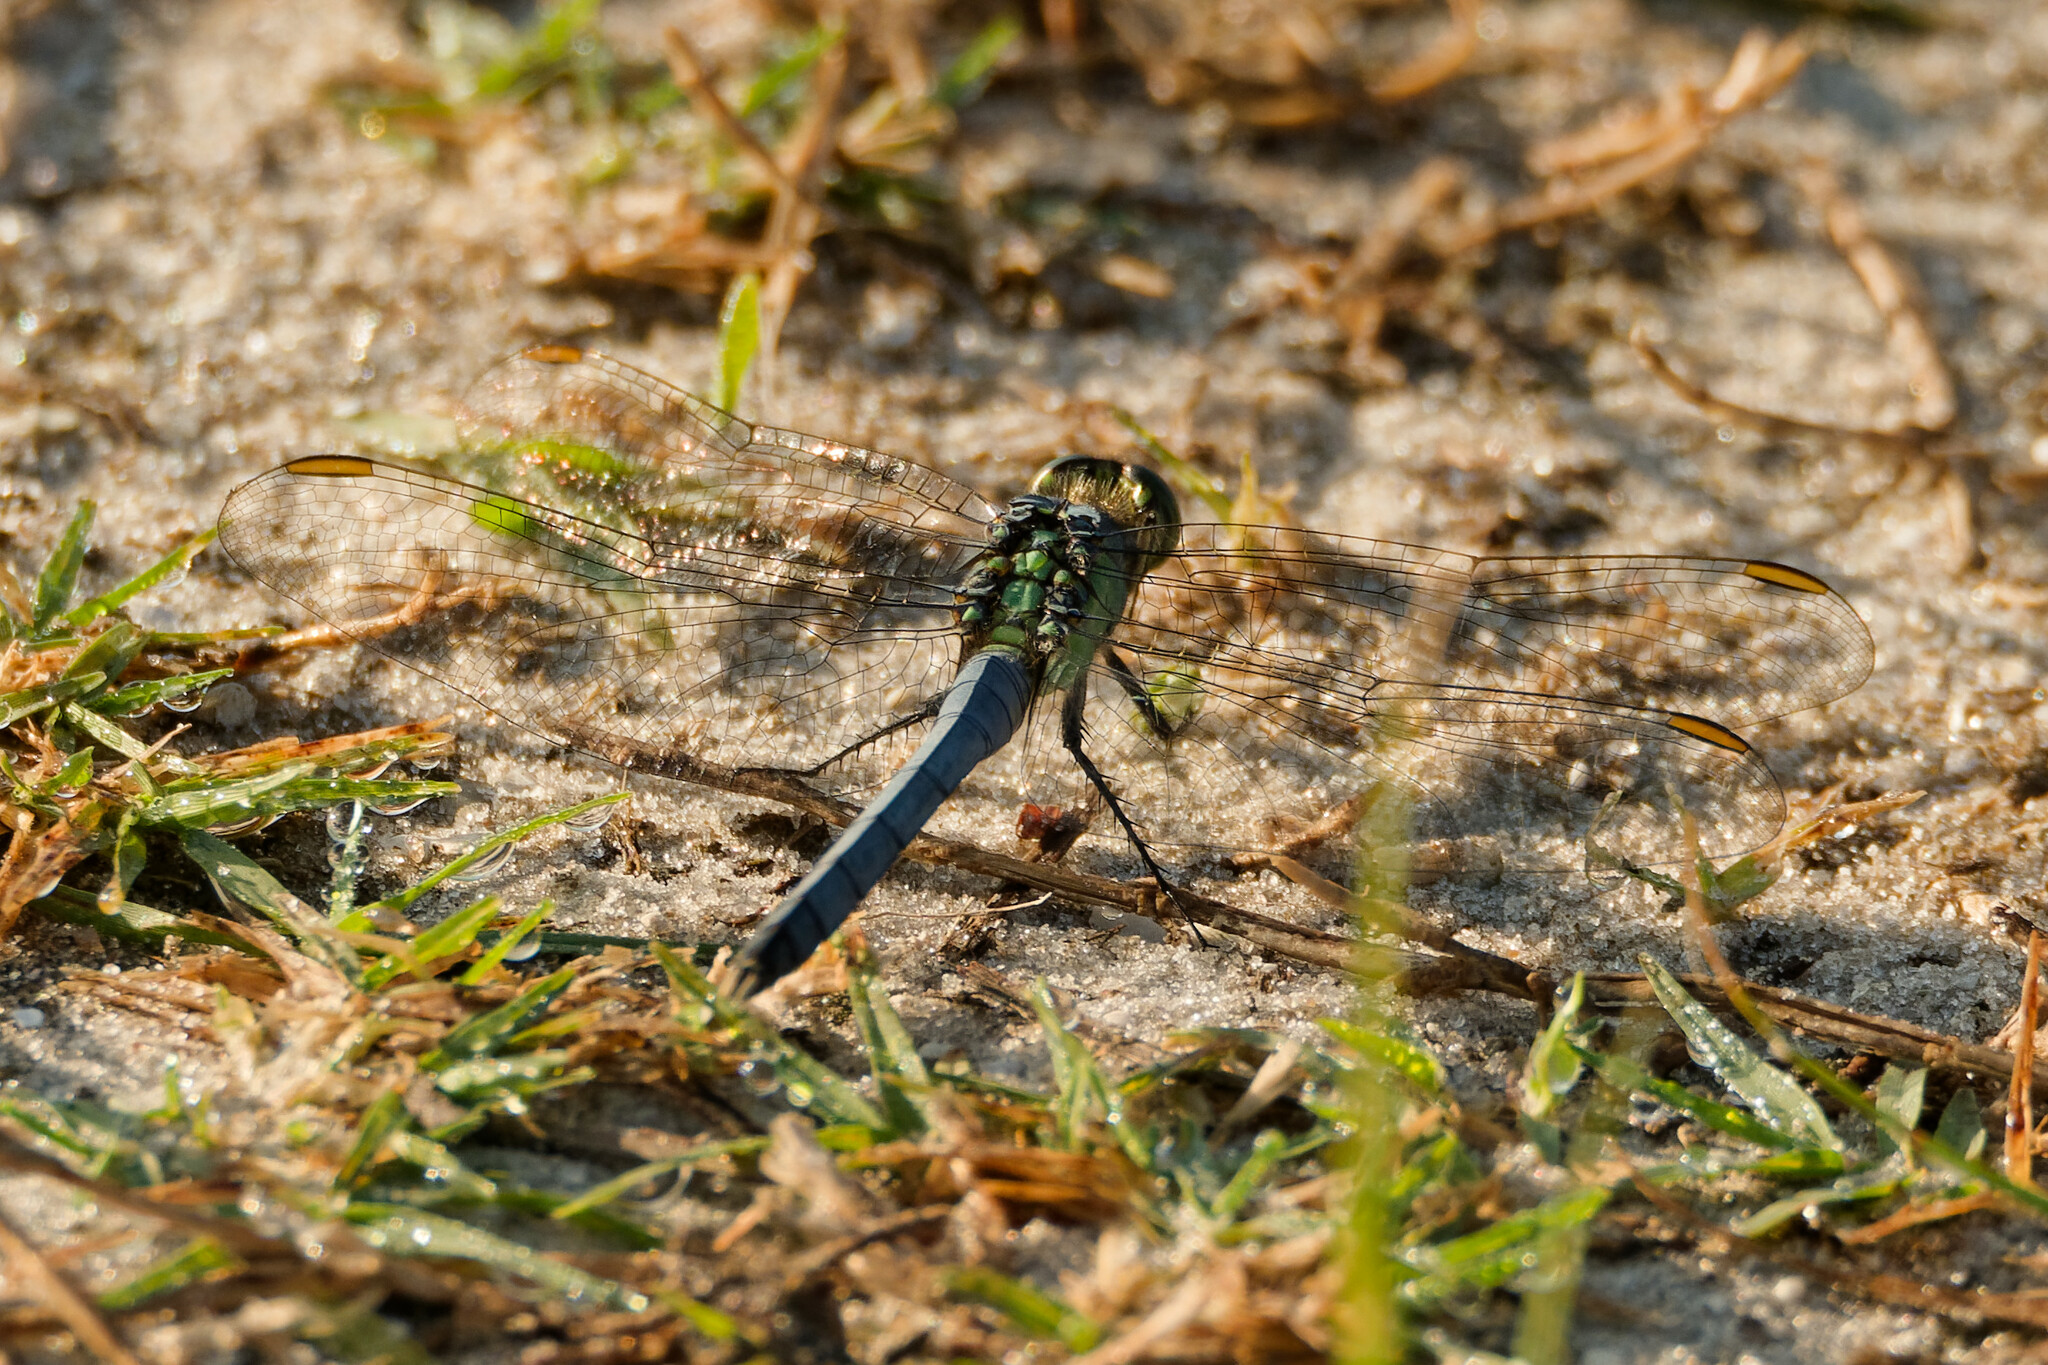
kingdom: Animalia
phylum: Arthropoda
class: Insecta
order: Odonata
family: Libellulidae
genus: Erythemis
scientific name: Erythemis simplicicollis
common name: Eastern pondhawk
